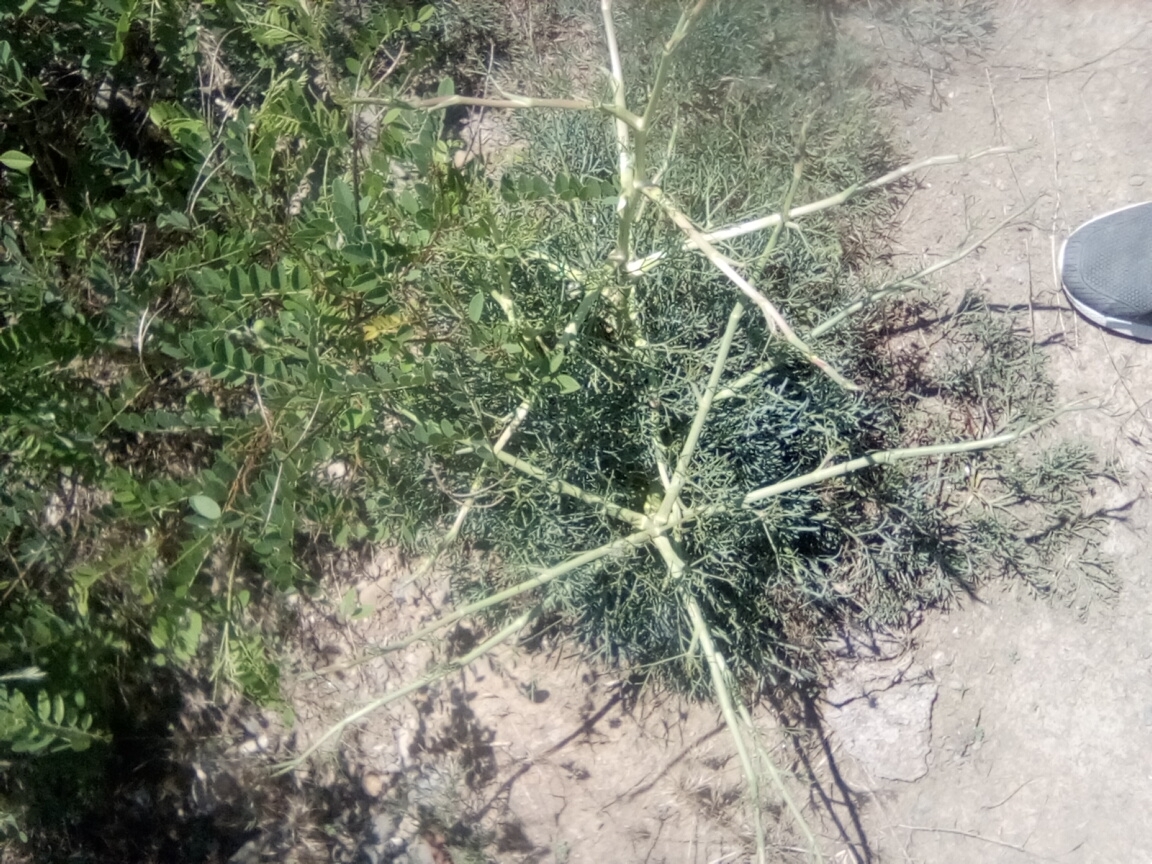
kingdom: Plantae
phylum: Tracheophyta
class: Magnoliopsida
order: Apiales
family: Apiaceae
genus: Seseli
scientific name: Seseli arenarium
